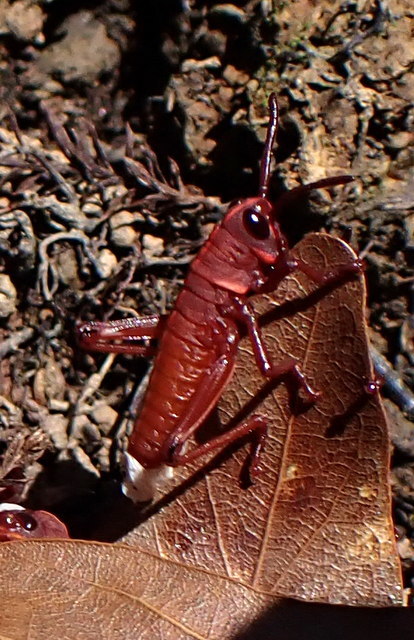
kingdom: Animalia
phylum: Arthropoda
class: Insecta
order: Orthoptera
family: Romaleidae
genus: Romalea
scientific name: Romalea microptera
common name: Eastern lubber grasshopper
